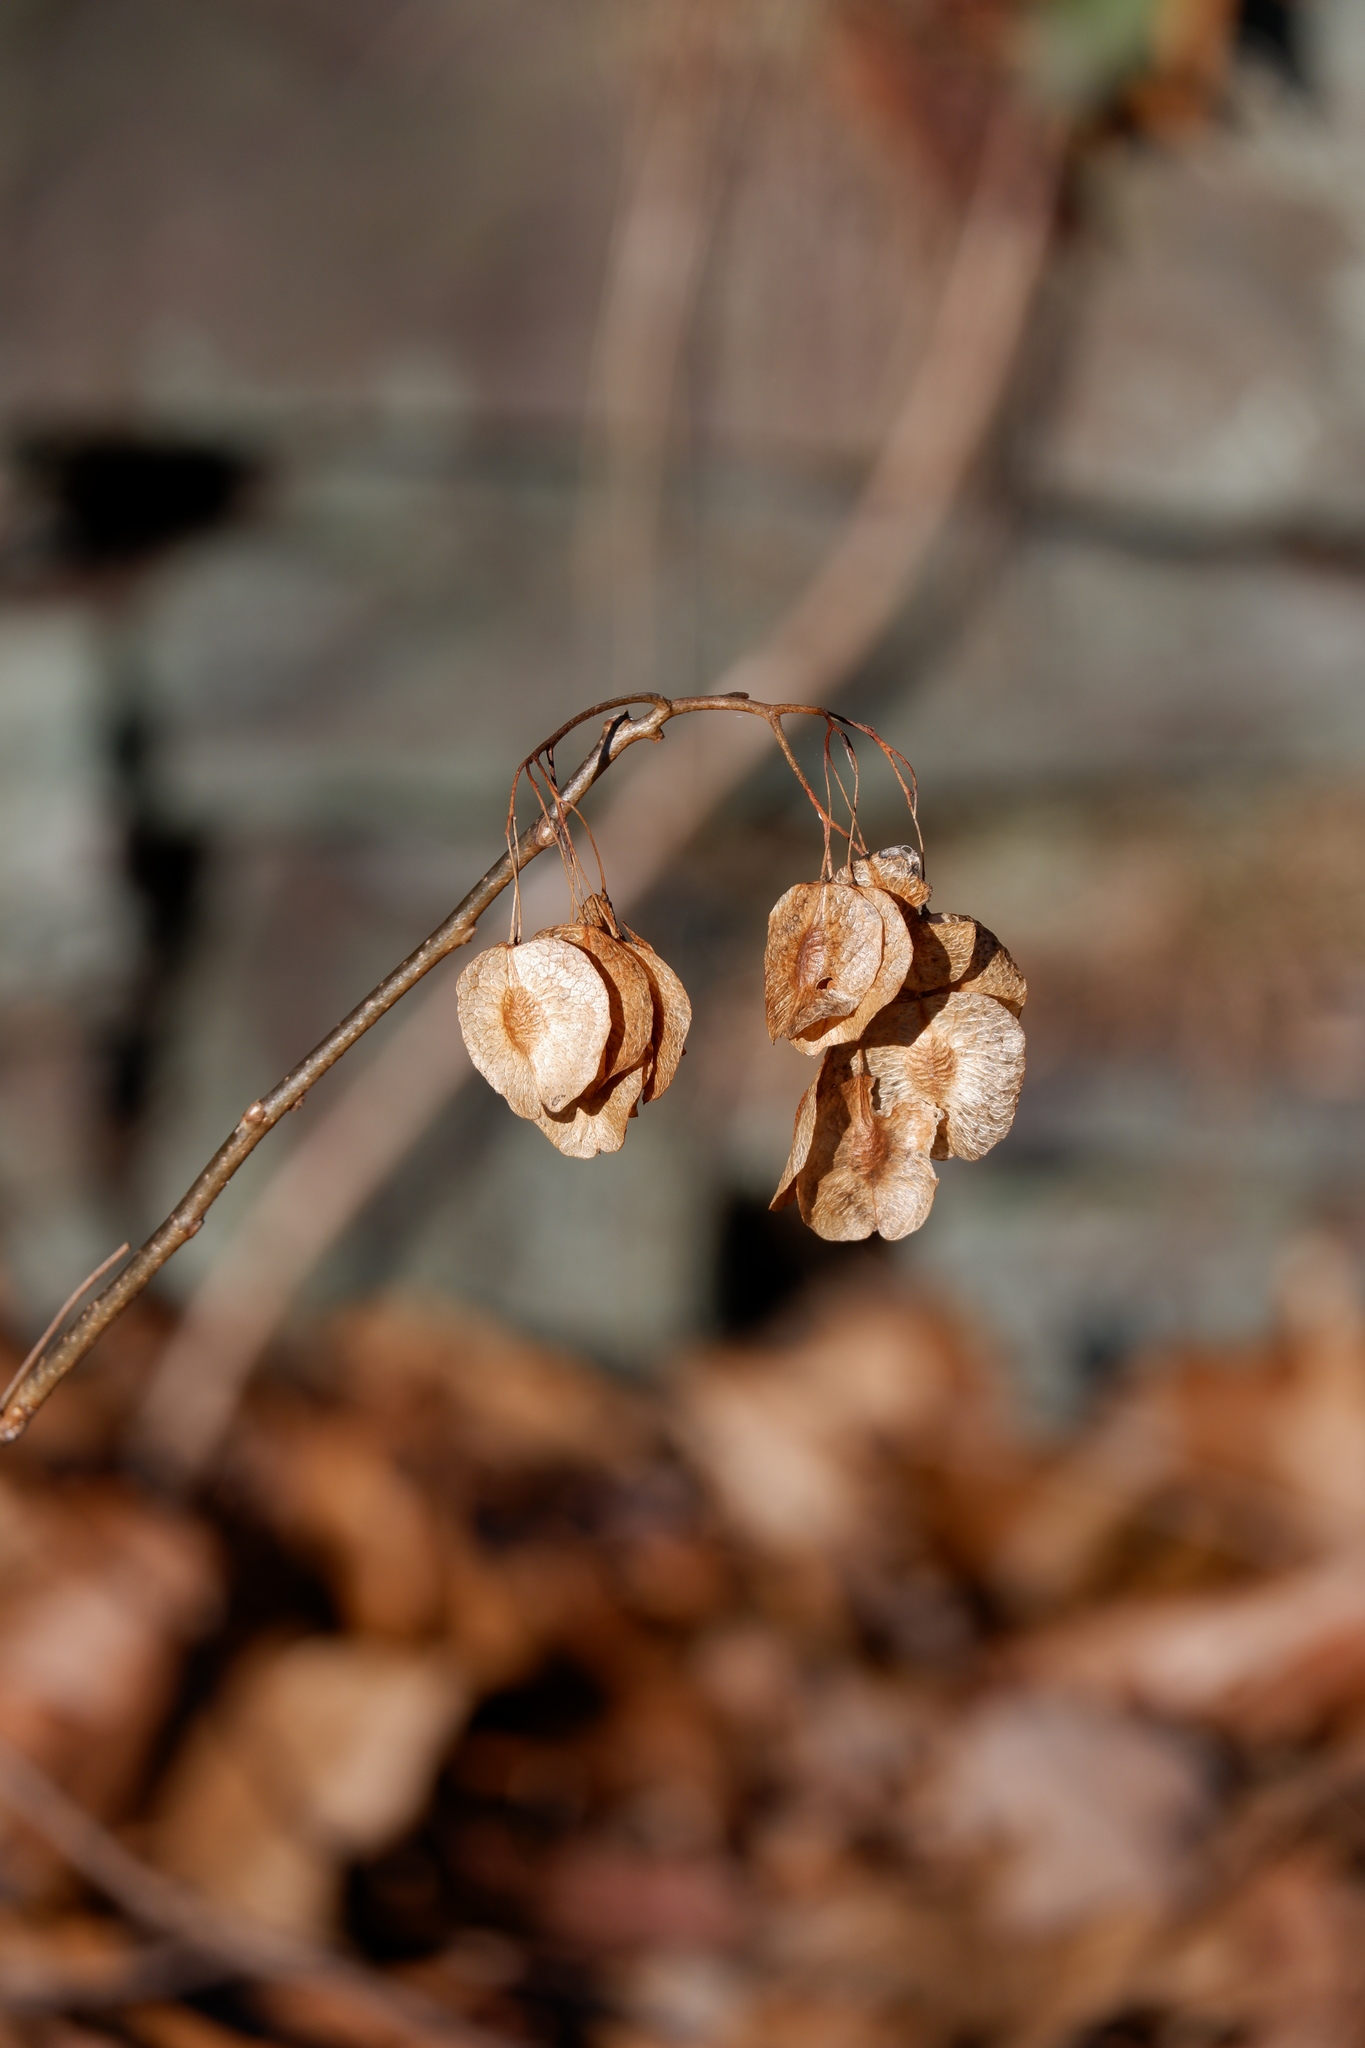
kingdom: Plantae
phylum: Tracheophyta
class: Magnoliopsida
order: Sapindales
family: Rutaceae
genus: Ptelea
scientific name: Ptelea trifoliata
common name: Common hop-tree
